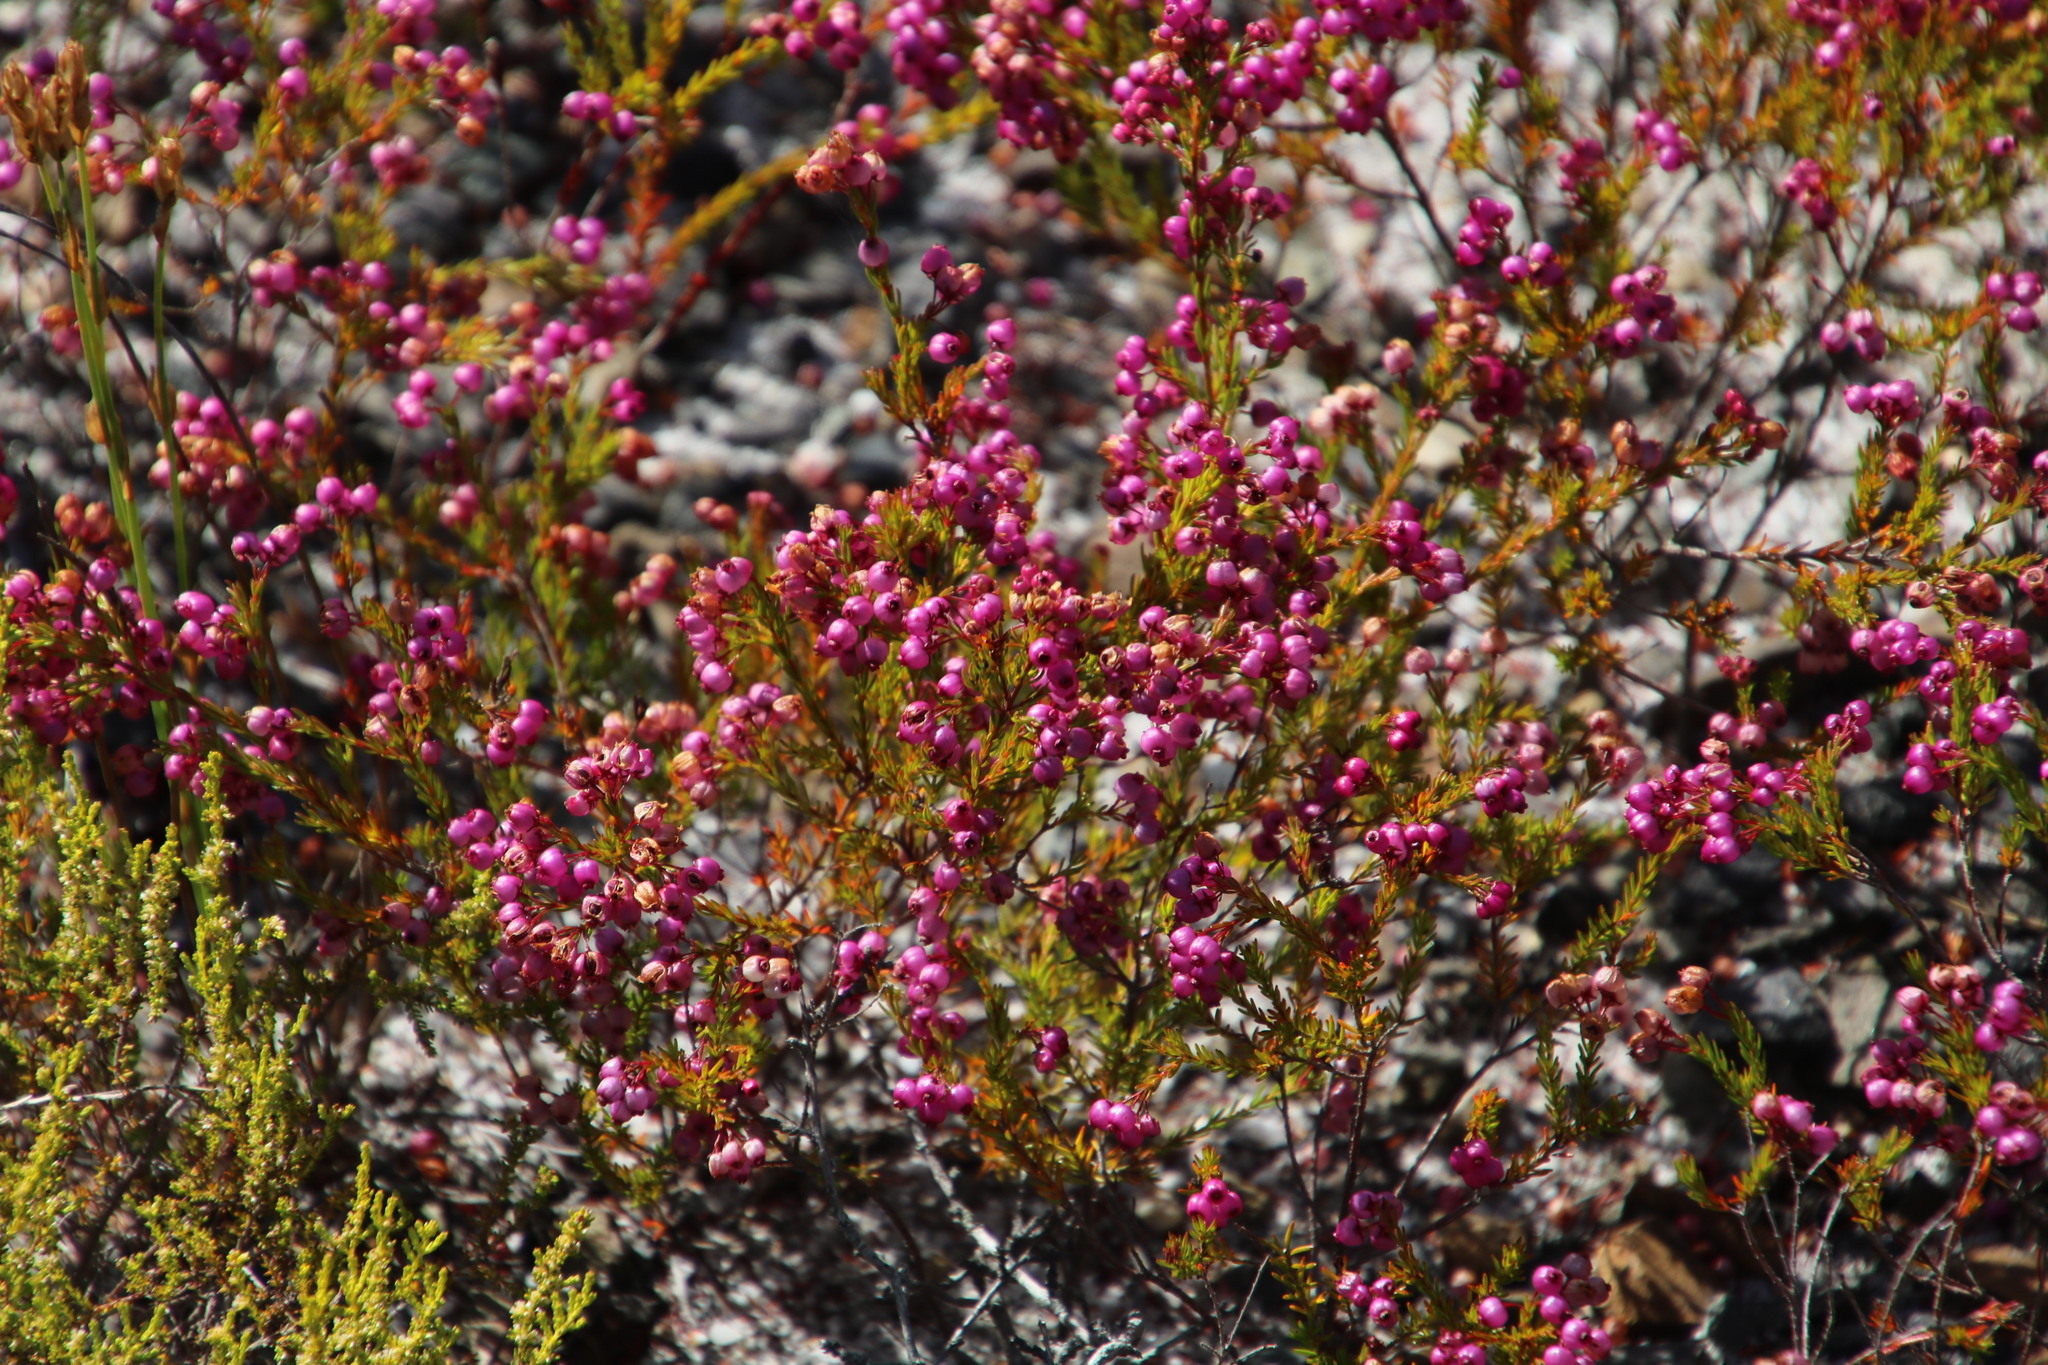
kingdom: Plantae
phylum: Tracheophyta
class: Magnoliopsida
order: Ericales
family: Ericaceae
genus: Erica
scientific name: Erica multumbellifera
